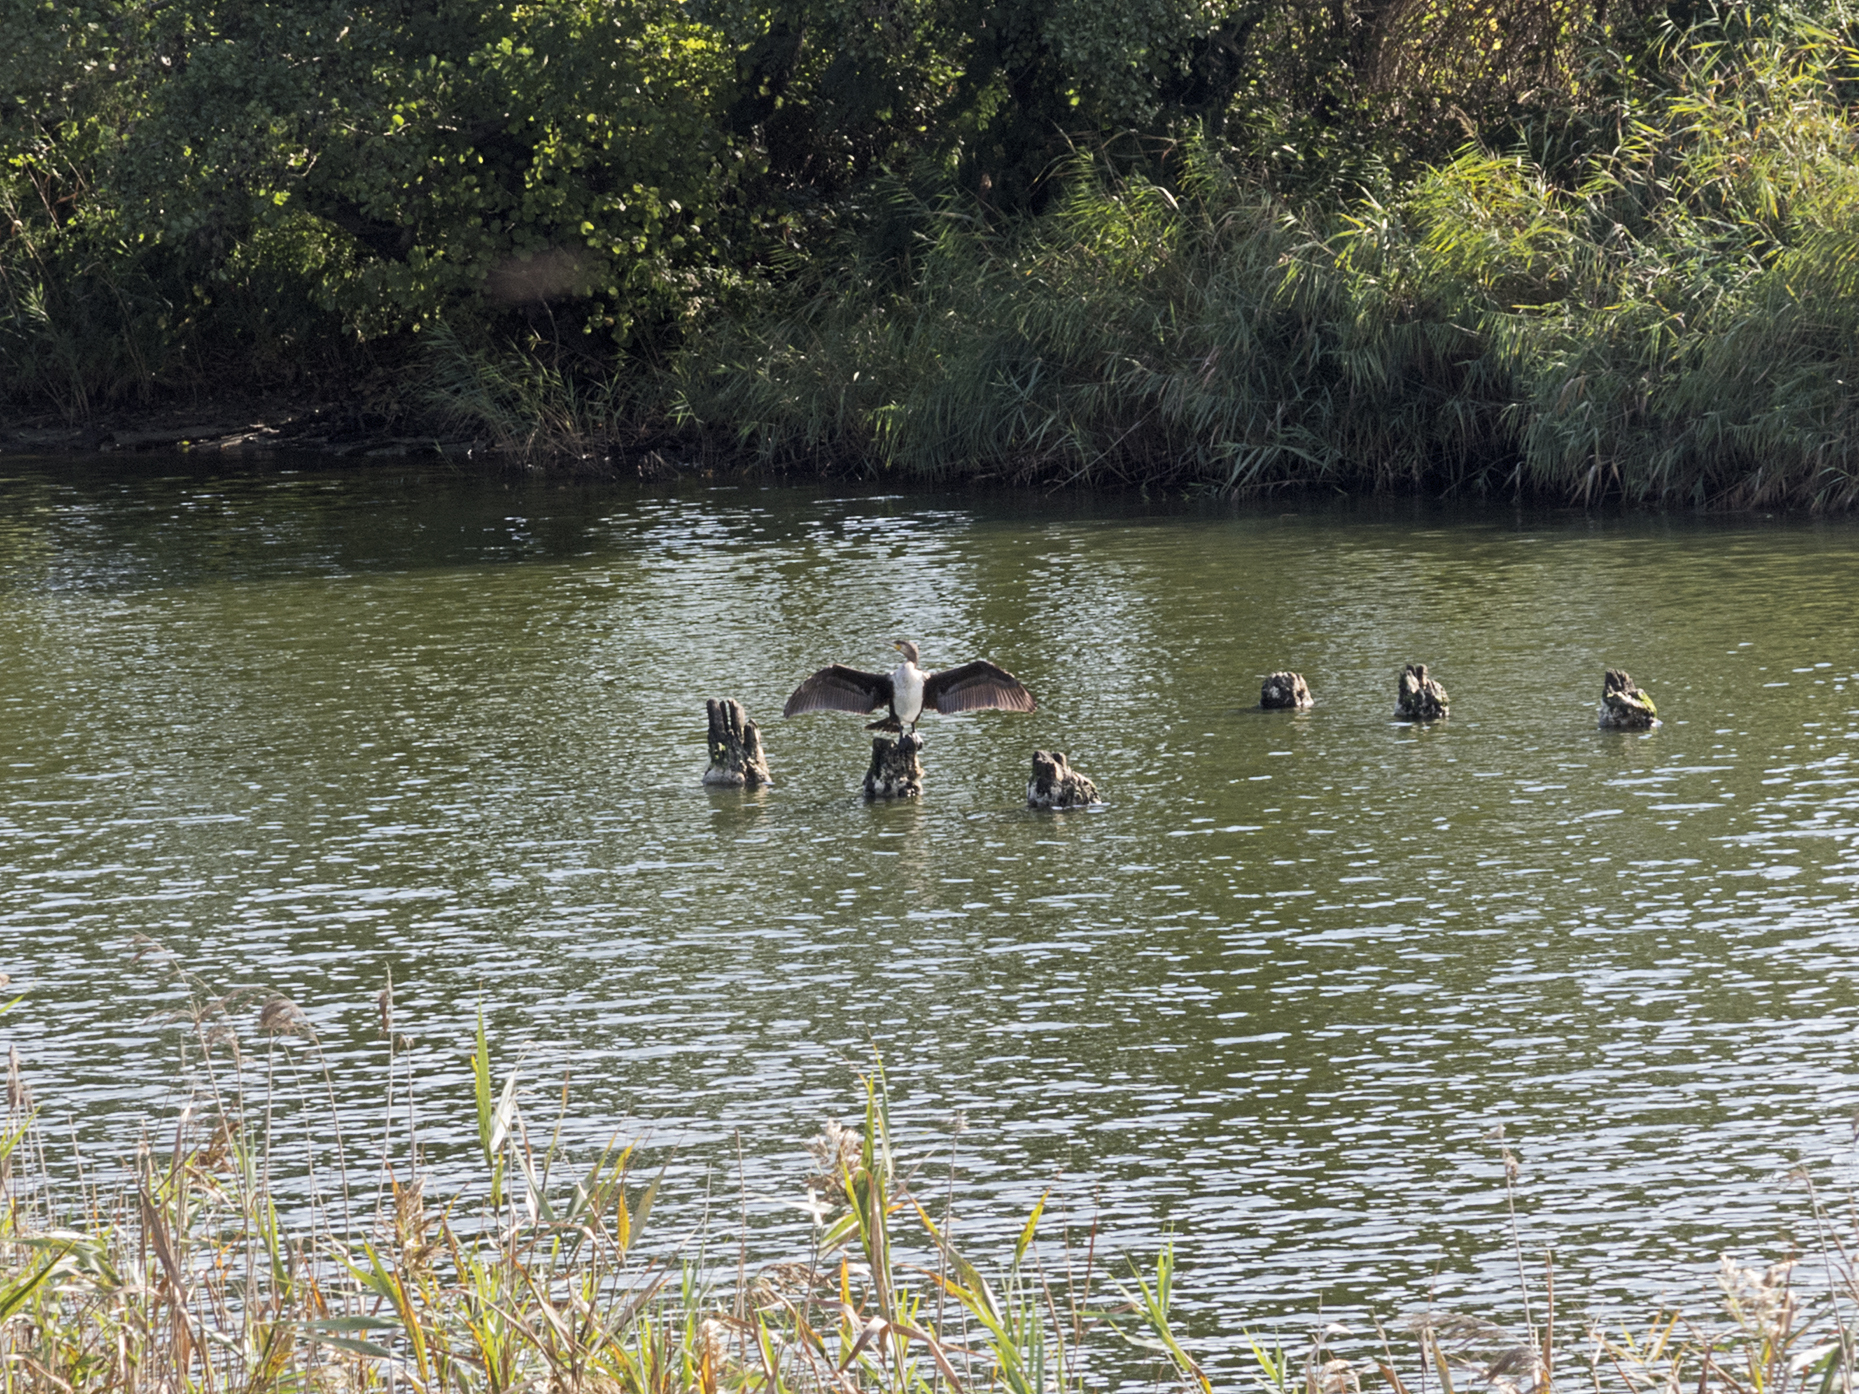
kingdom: Animalia
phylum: Chordata
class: Aves
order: Suliformes
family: Phalacrocoracidae
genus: Phalacrocorax
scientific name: Phalacrocorax carbo
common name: Great cormorant
